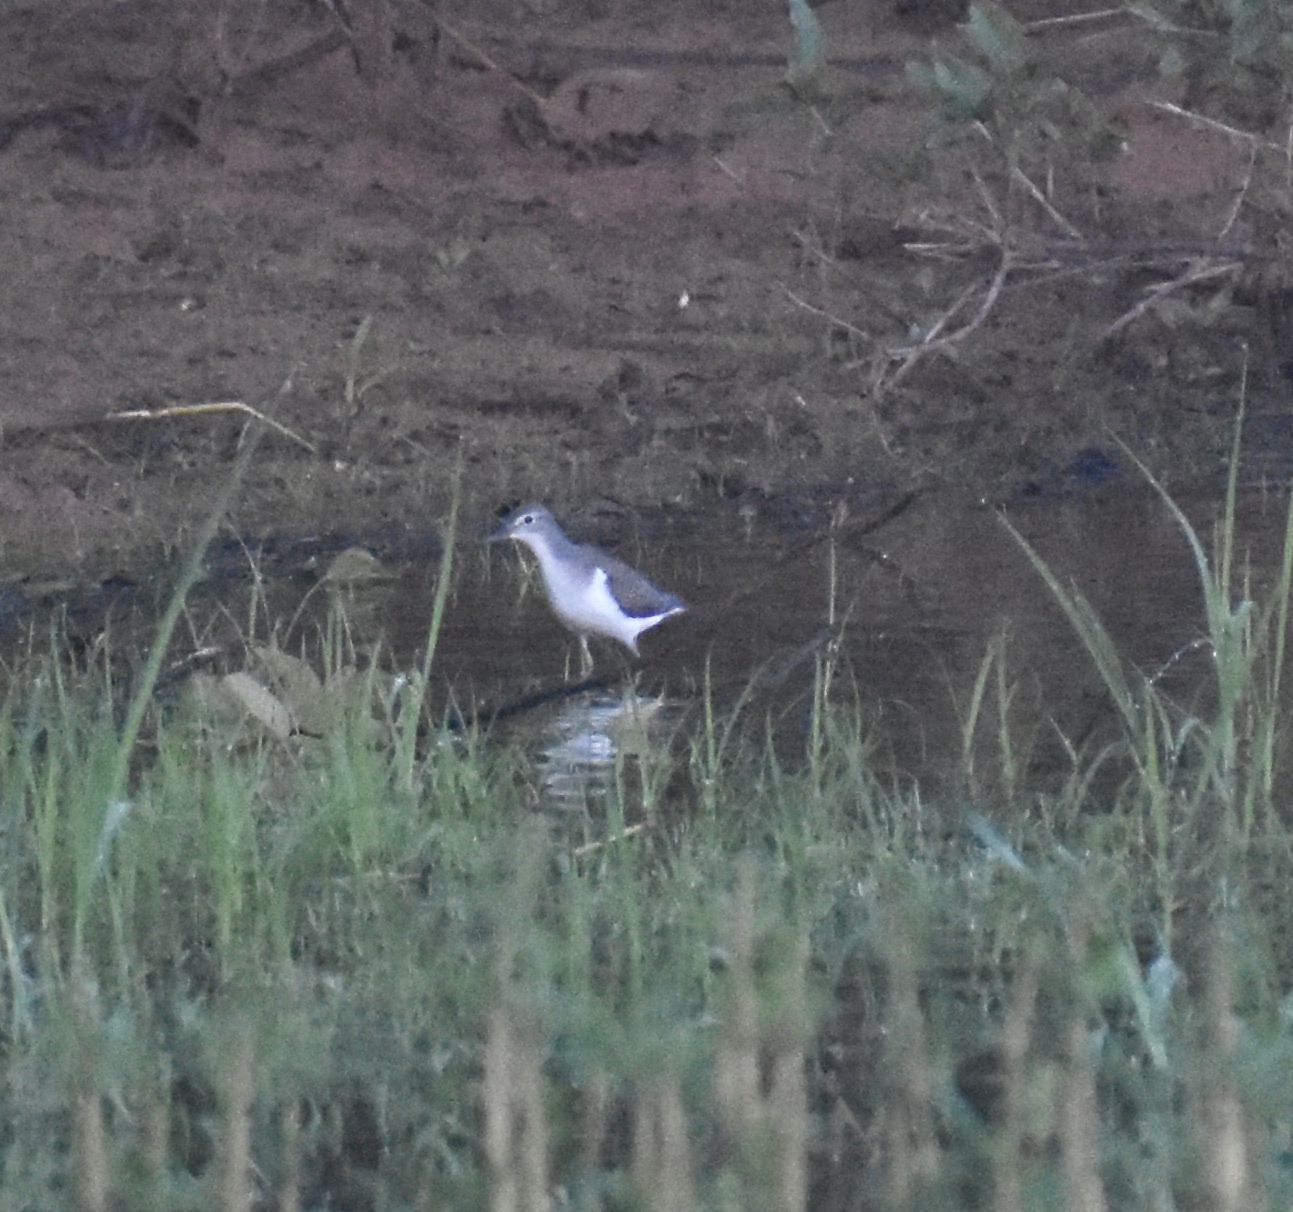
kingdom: Animalia
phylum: Chordata
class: Aves
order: Charadriiformes
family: Scolopacidae
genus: Actitis
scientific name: Actitis macularius
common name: Spotted sandpiper
